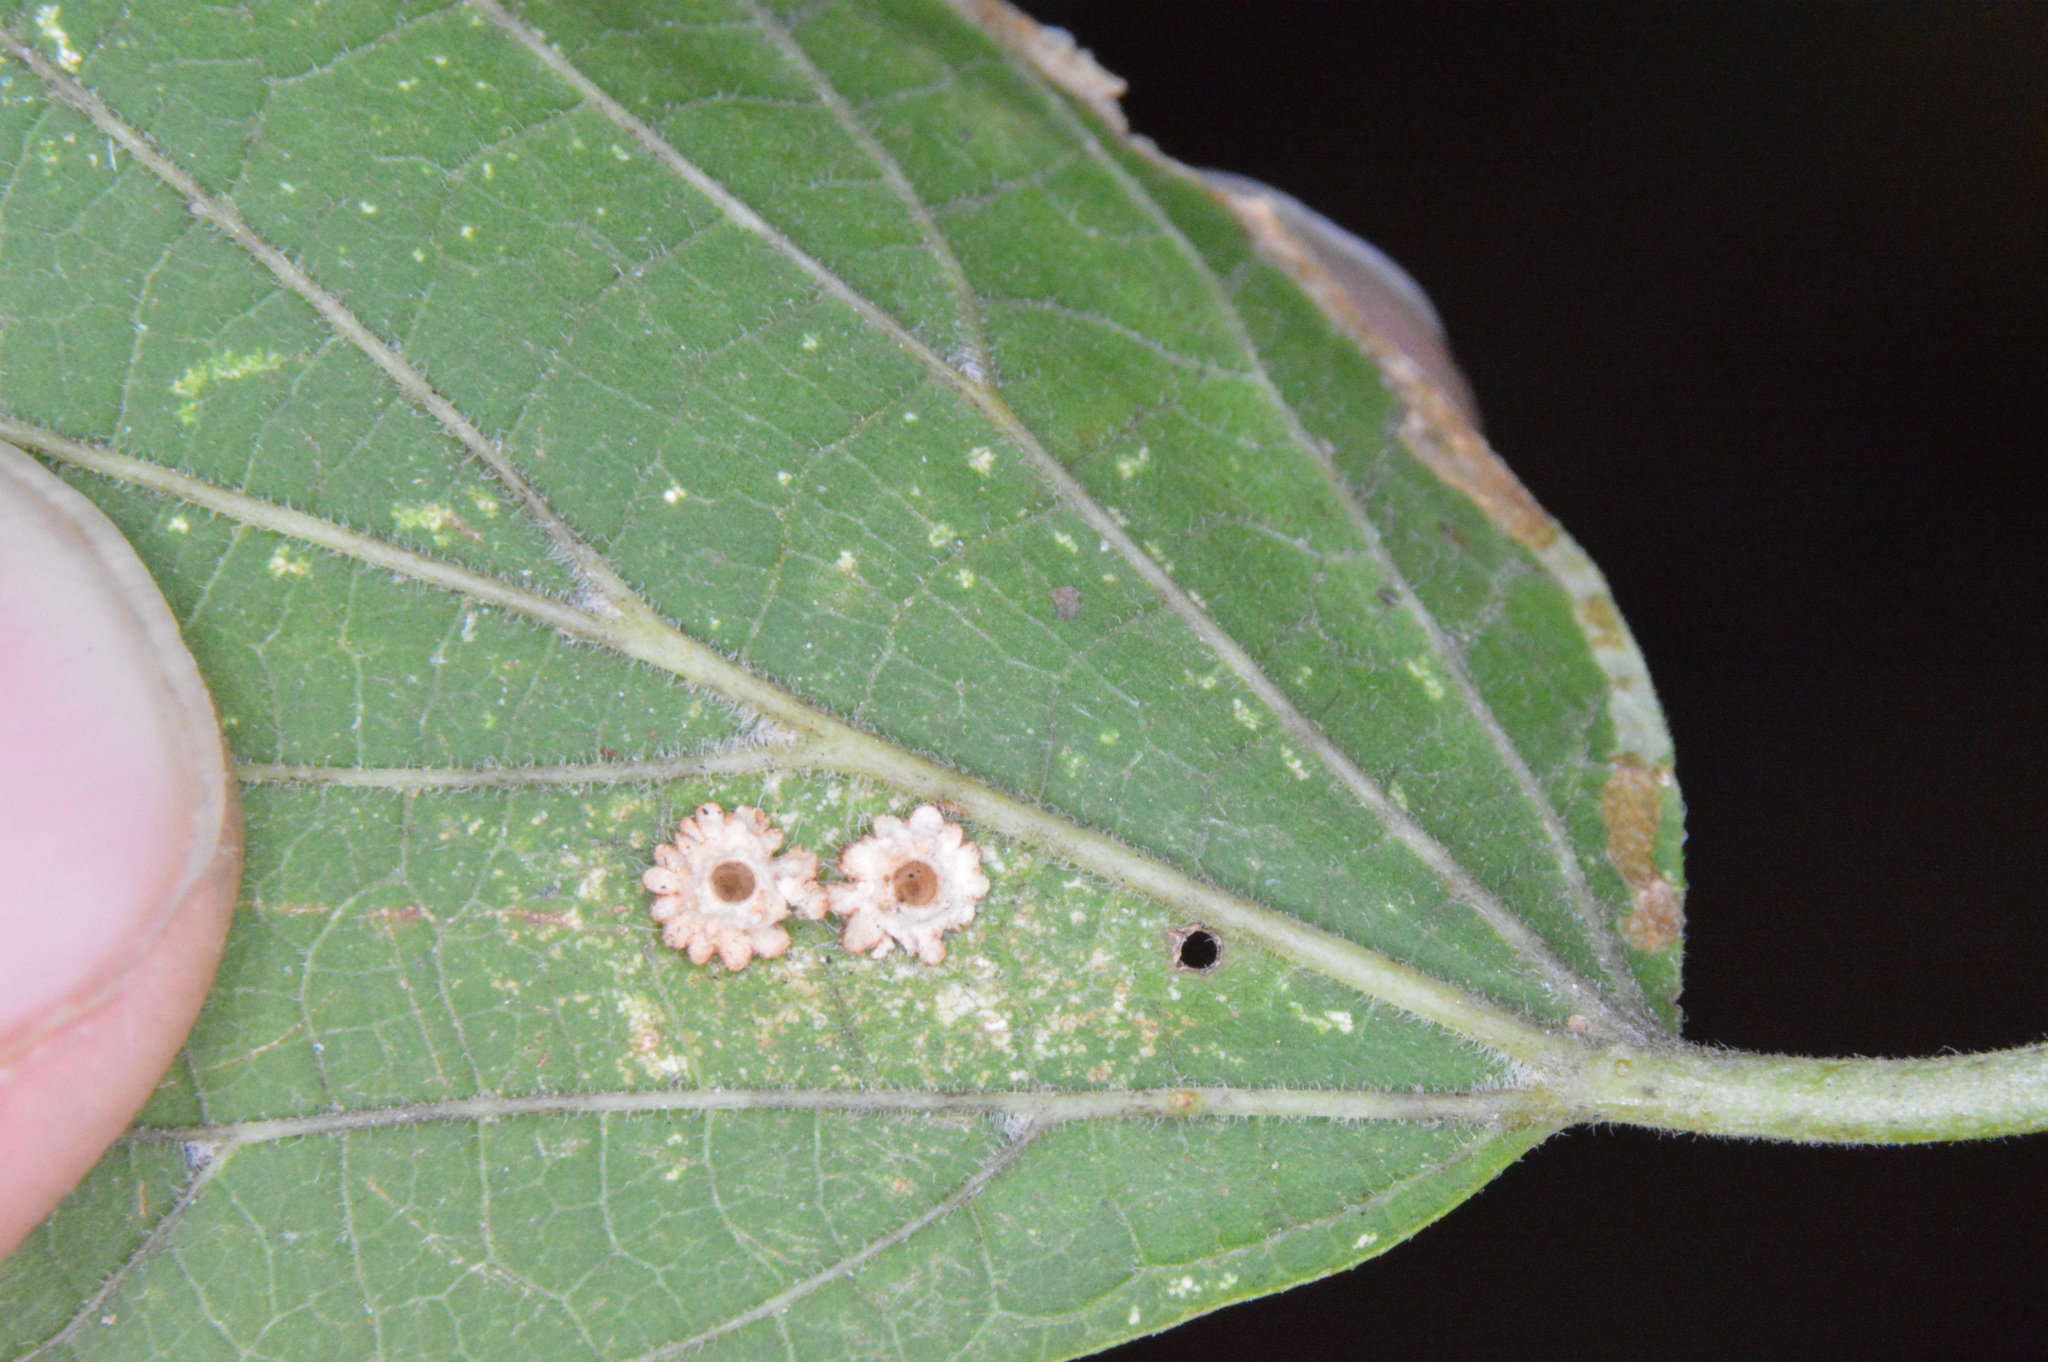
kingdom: Animalia
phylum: Arthropoda
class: Insecta
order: Diptera
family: Cecidomyiidae
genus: Celticecis
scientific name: Celticecis capsularis
